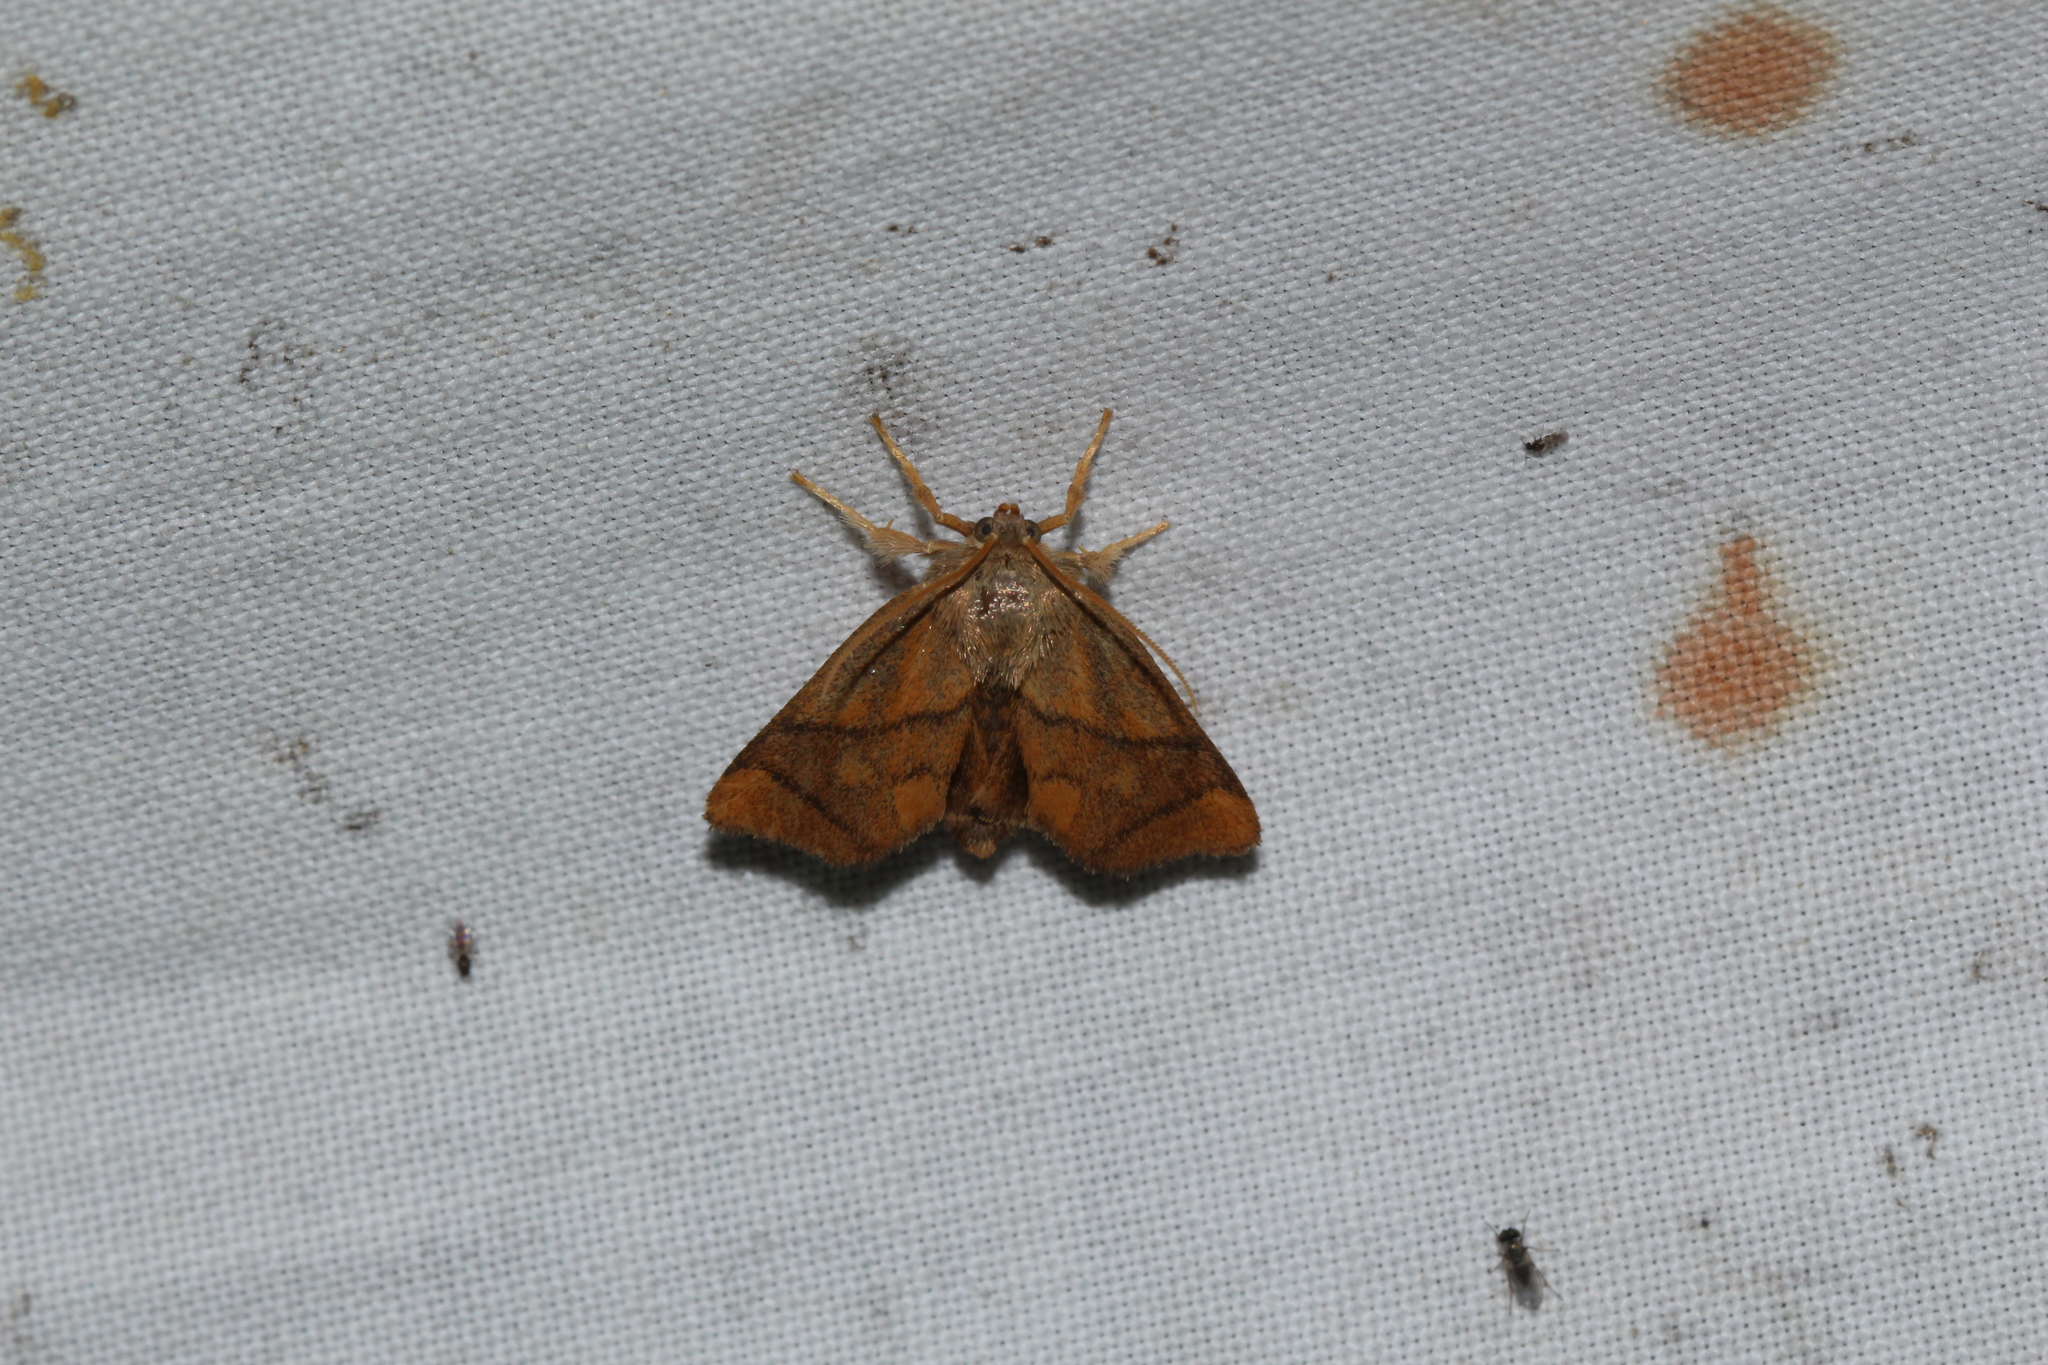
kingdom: Animalia
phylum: Arthropoda
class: Insecta
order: Lepidoptera
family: Limacodidae
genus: Apoda
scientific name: Apoda limacodes
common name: Festoon
